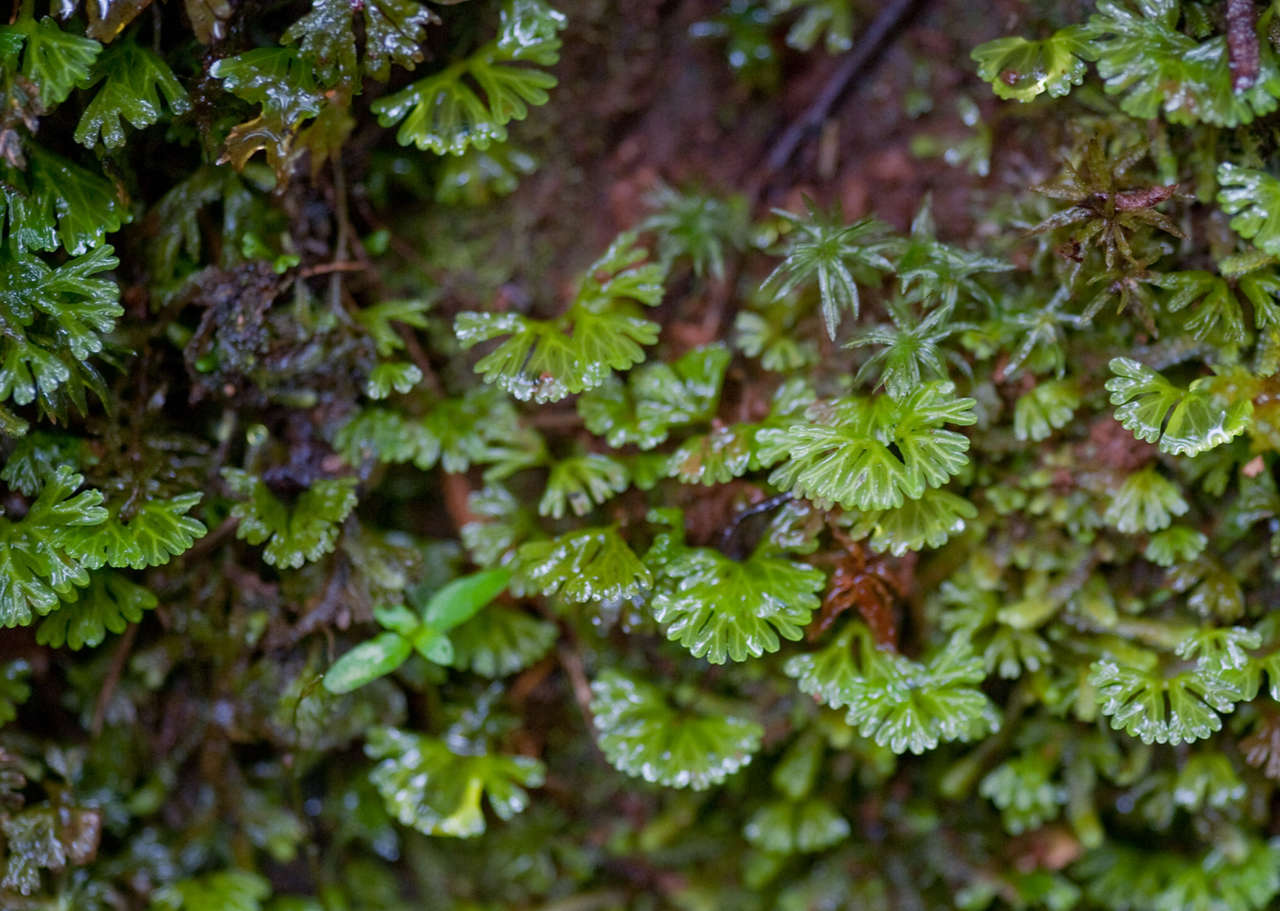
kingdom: Plantae
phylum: Marchantiophyta
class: Jungermanniopsida
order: Pallaviciniales
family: Hymenophytaceae
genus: Hymenophyton
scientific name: Hymenophyton flabellatum
